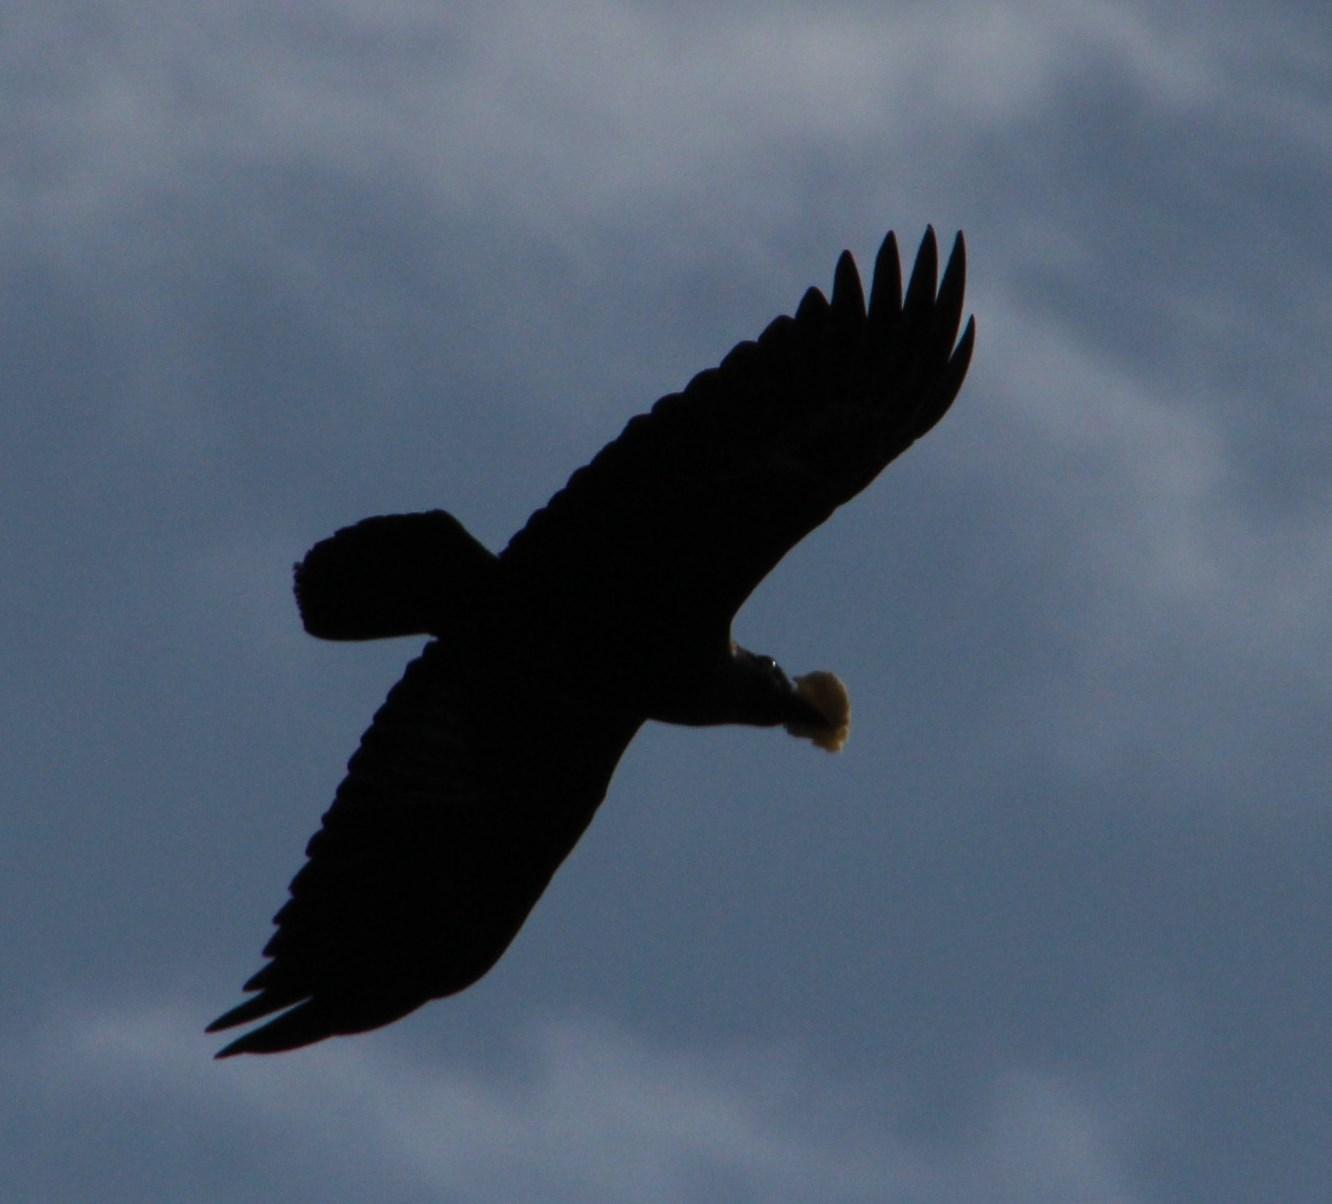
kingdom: Animalia
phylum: Chordata
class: Aves
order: Passeriformes
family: Corvidae
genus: Corvus
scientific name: Corvus albicollis
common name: White-necked raven
